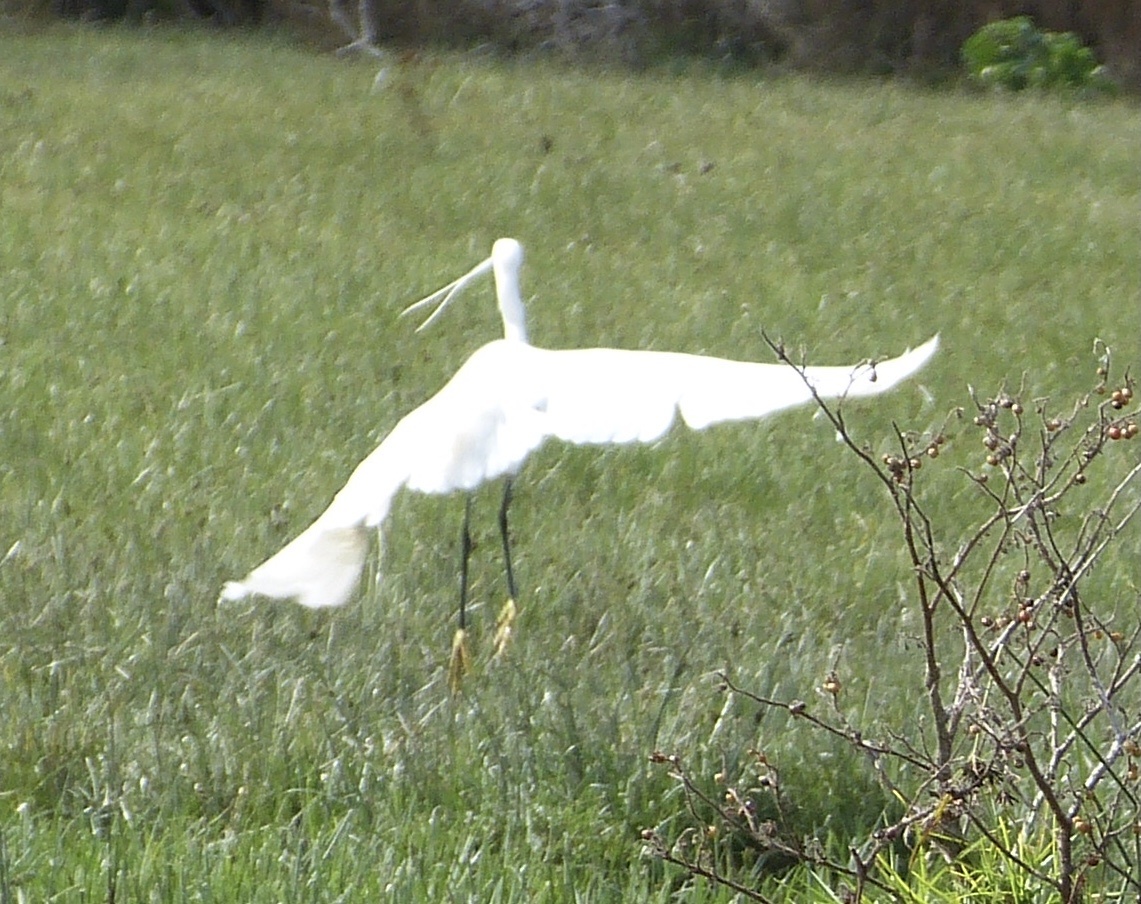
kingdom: Animalia
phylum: Chordata
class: Aves
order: Pelecaniformes
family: Ardeidae
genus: Egretta
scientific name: Egretta garzetta
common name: Little egret
